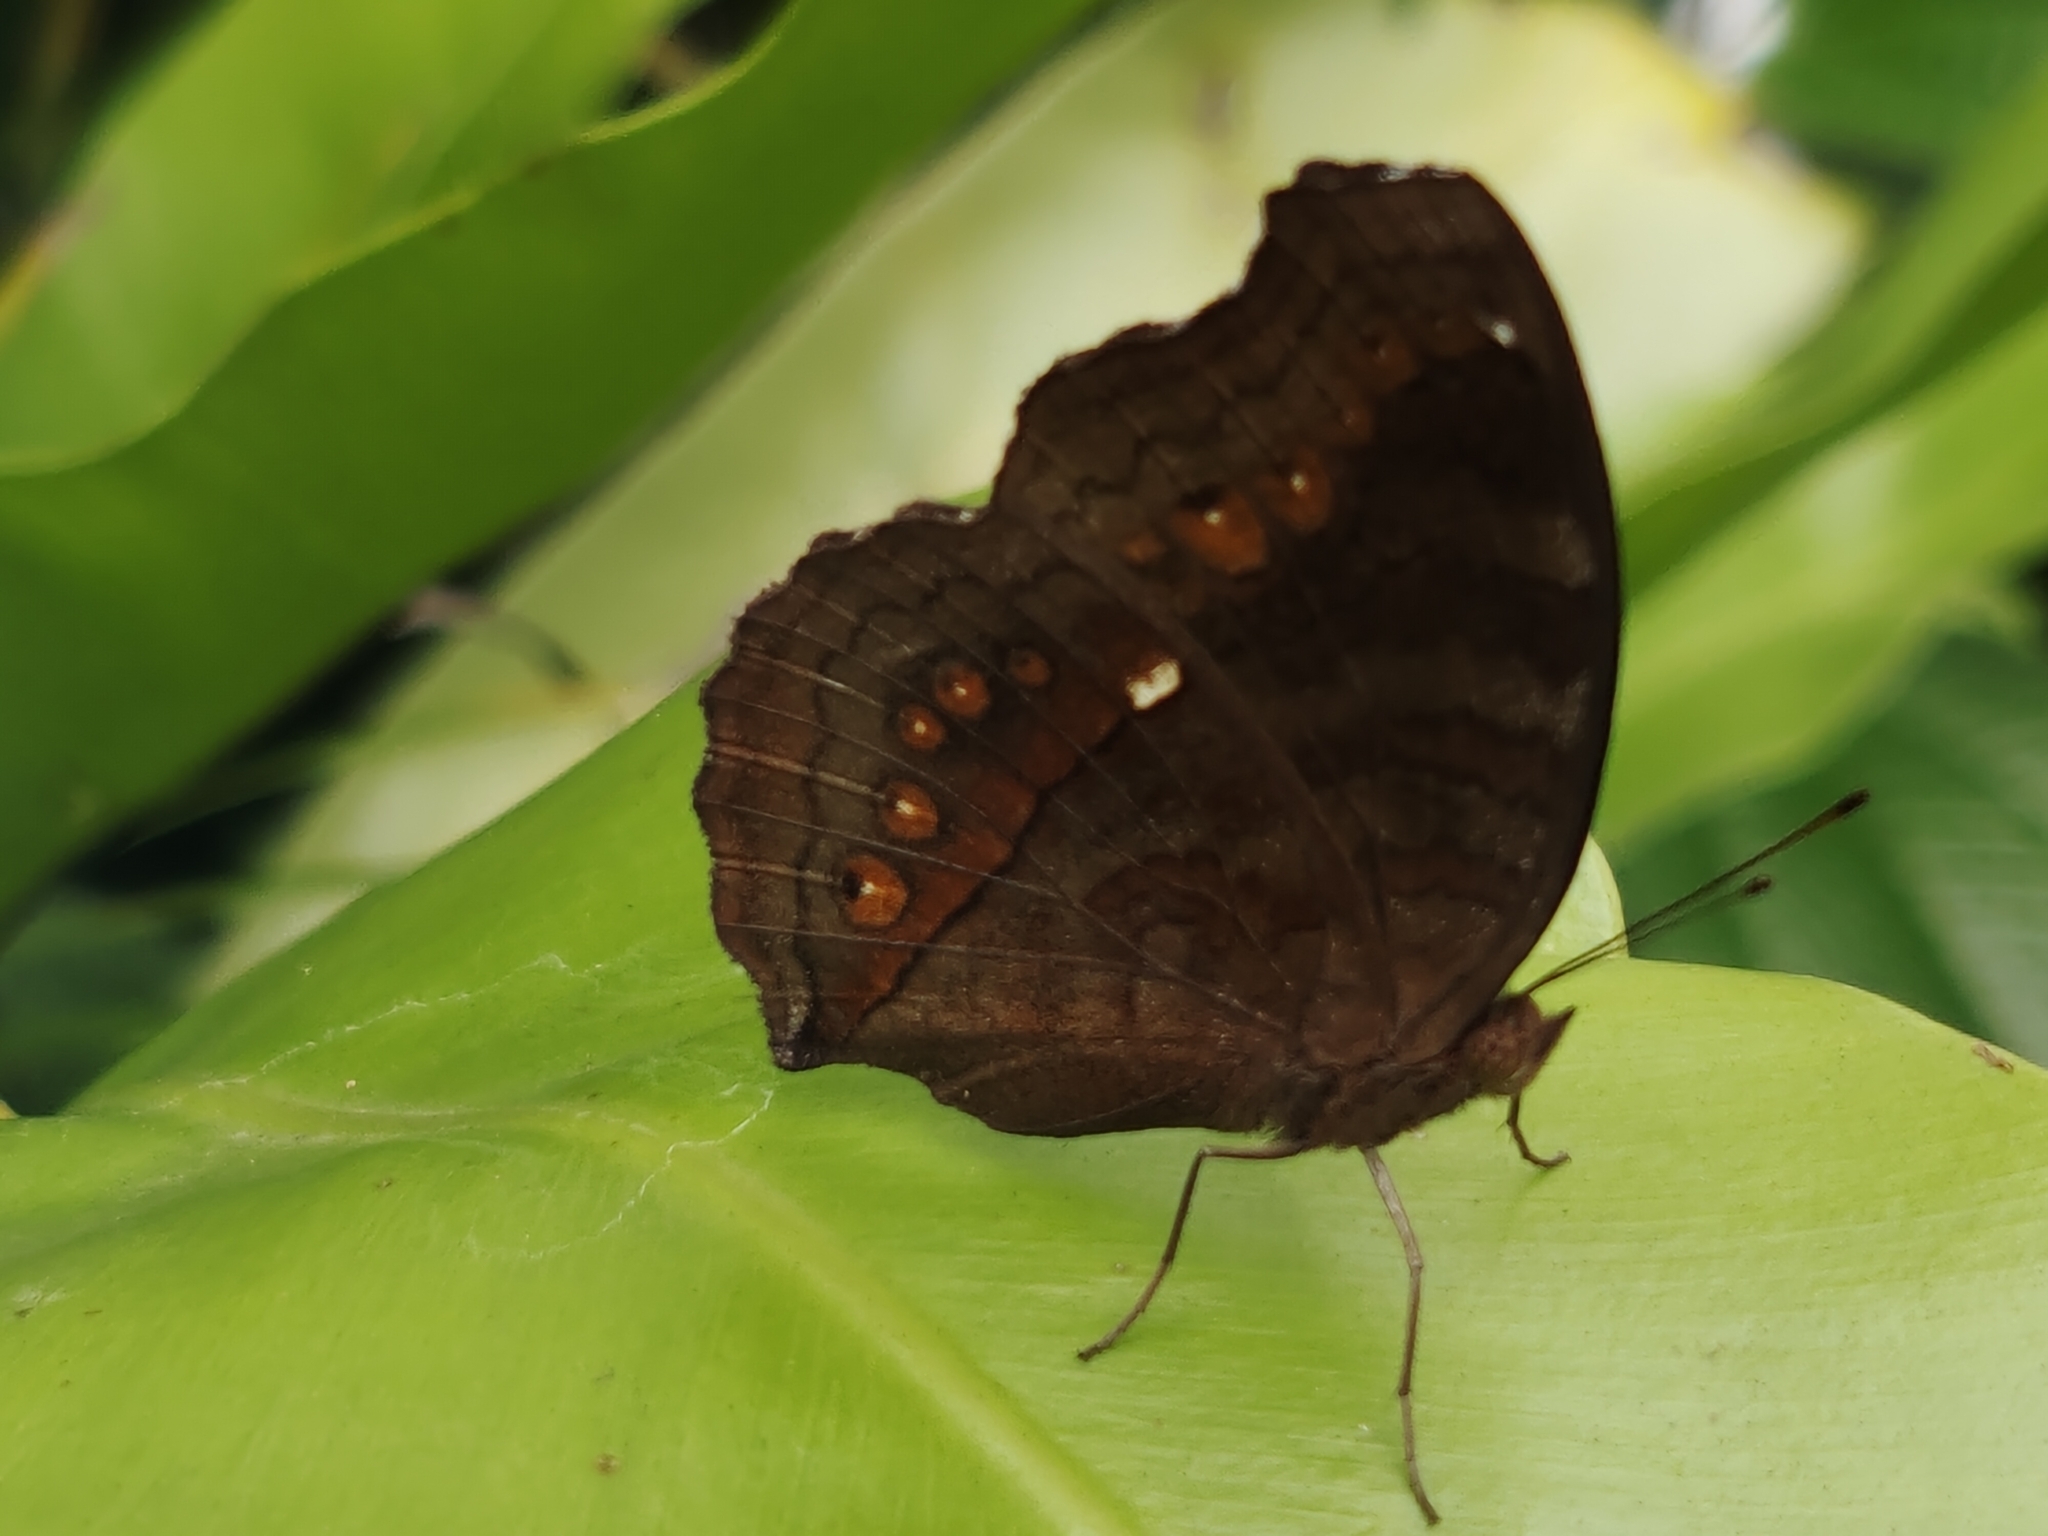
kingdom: Animalia
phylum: Arthropoda
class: Insecta
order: Lepidoptera
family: Nymphalidae
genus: Junonia
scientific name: Junonia hedonia
